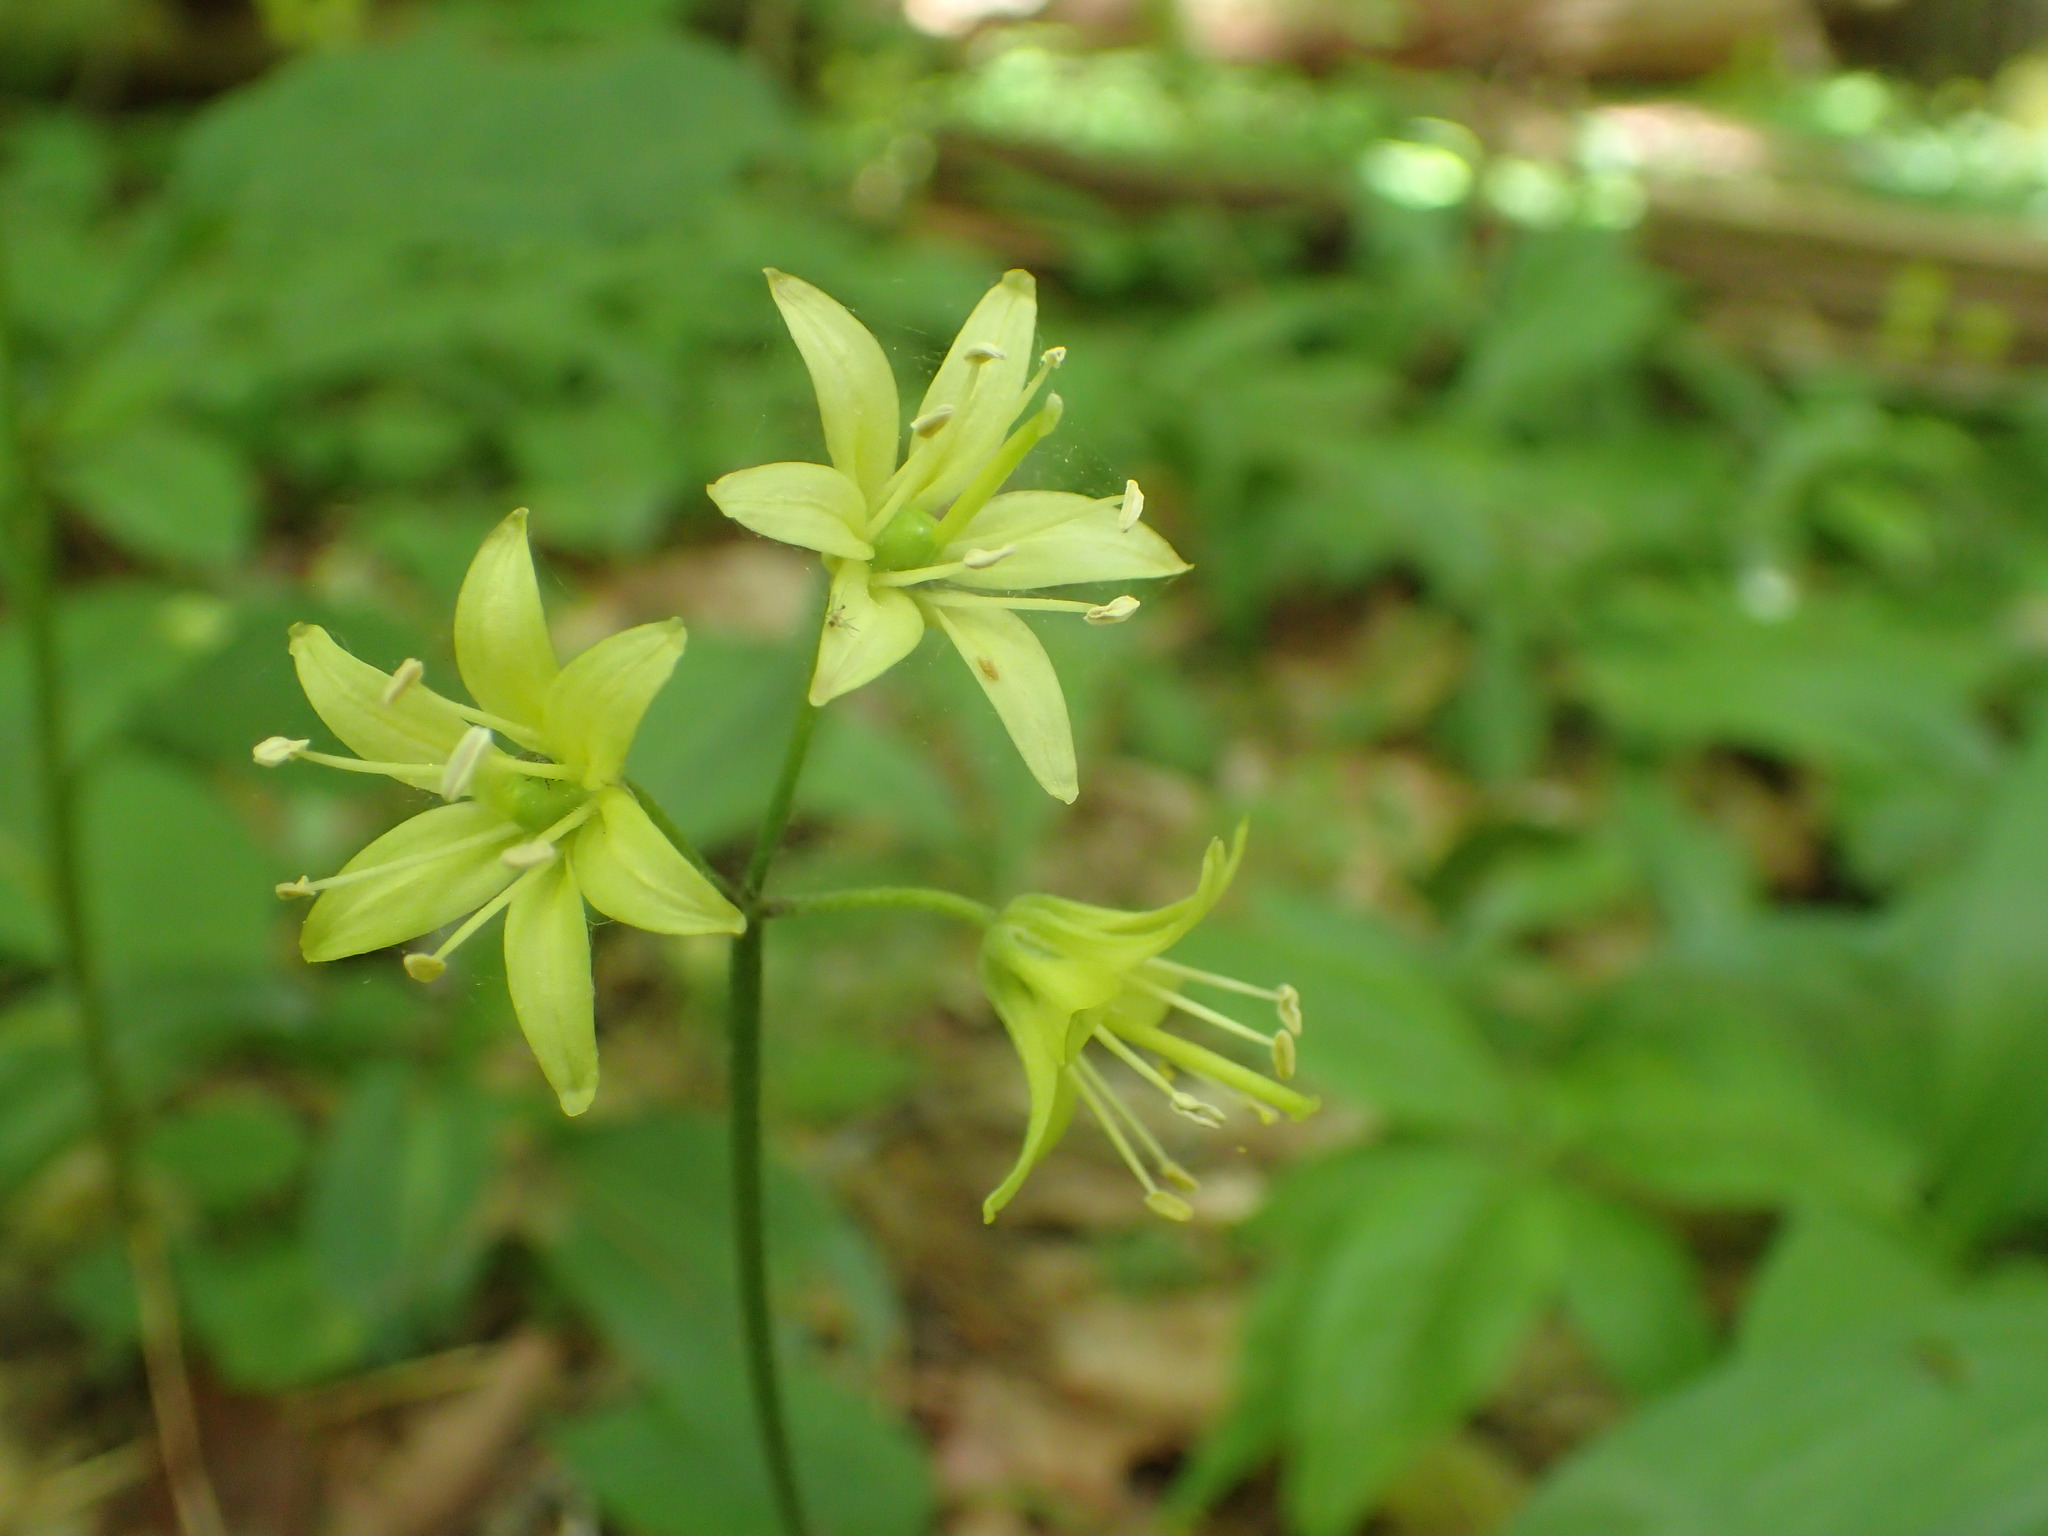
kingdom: Plantae
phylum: Tracheophyta
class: Liliopsida
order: Liliales
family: Liliaceae
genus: Clintonia
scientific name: Clintonia borealis
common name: Yellow clintonia
